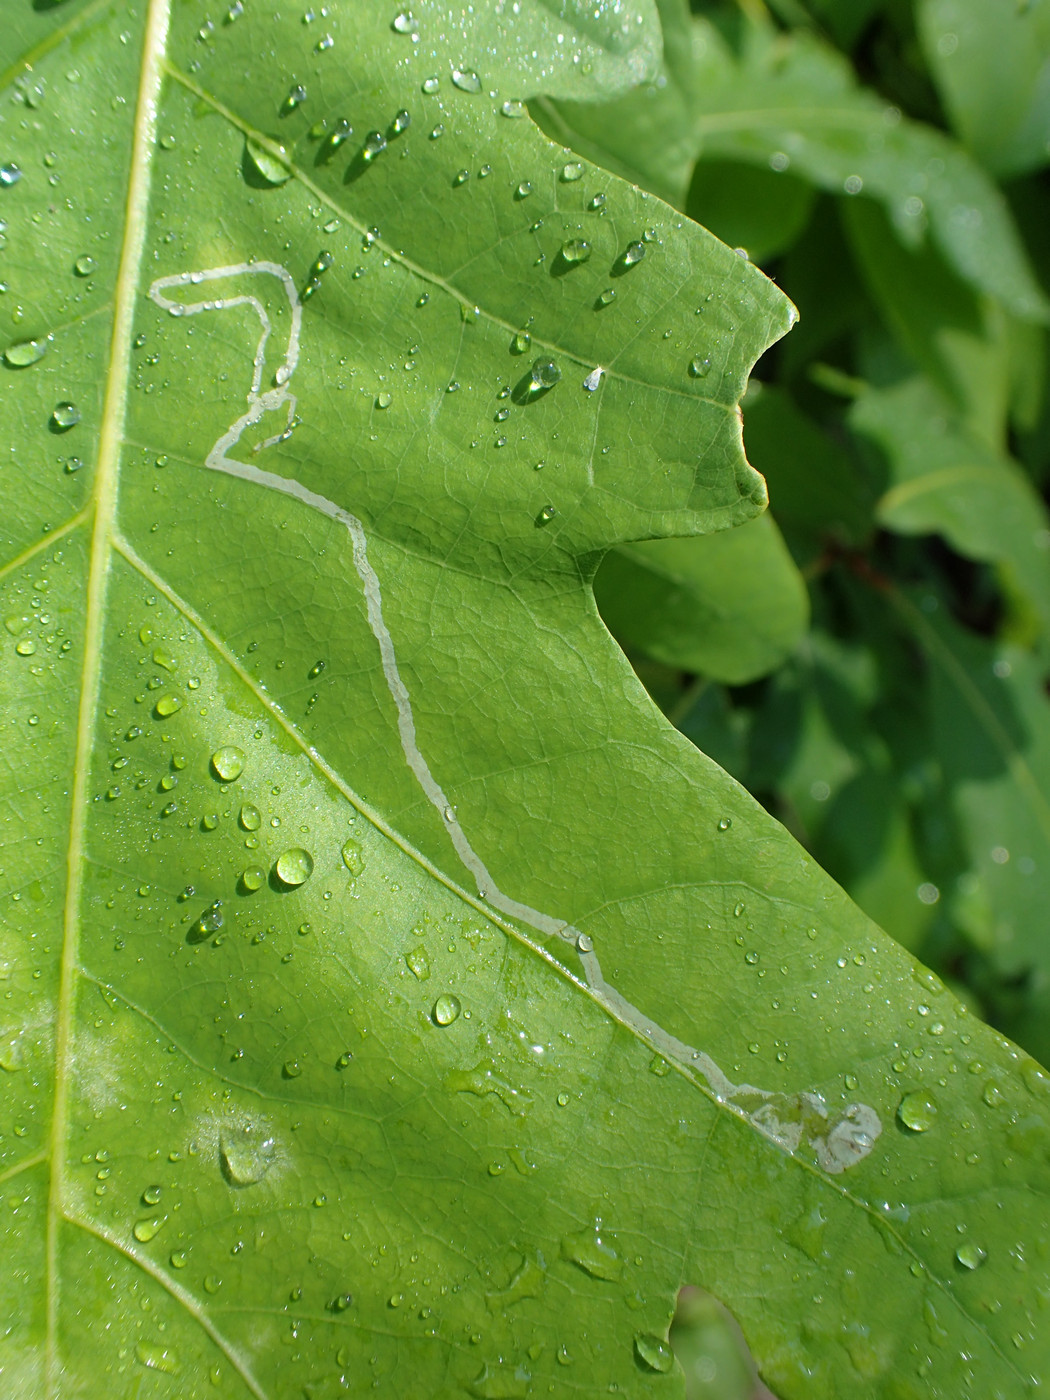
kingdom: Animalia
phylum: Arthropoda
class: Insecta
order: Lepidoptera
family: Gracillariidae
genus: Cryptolectica
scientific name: Cryptolectica
